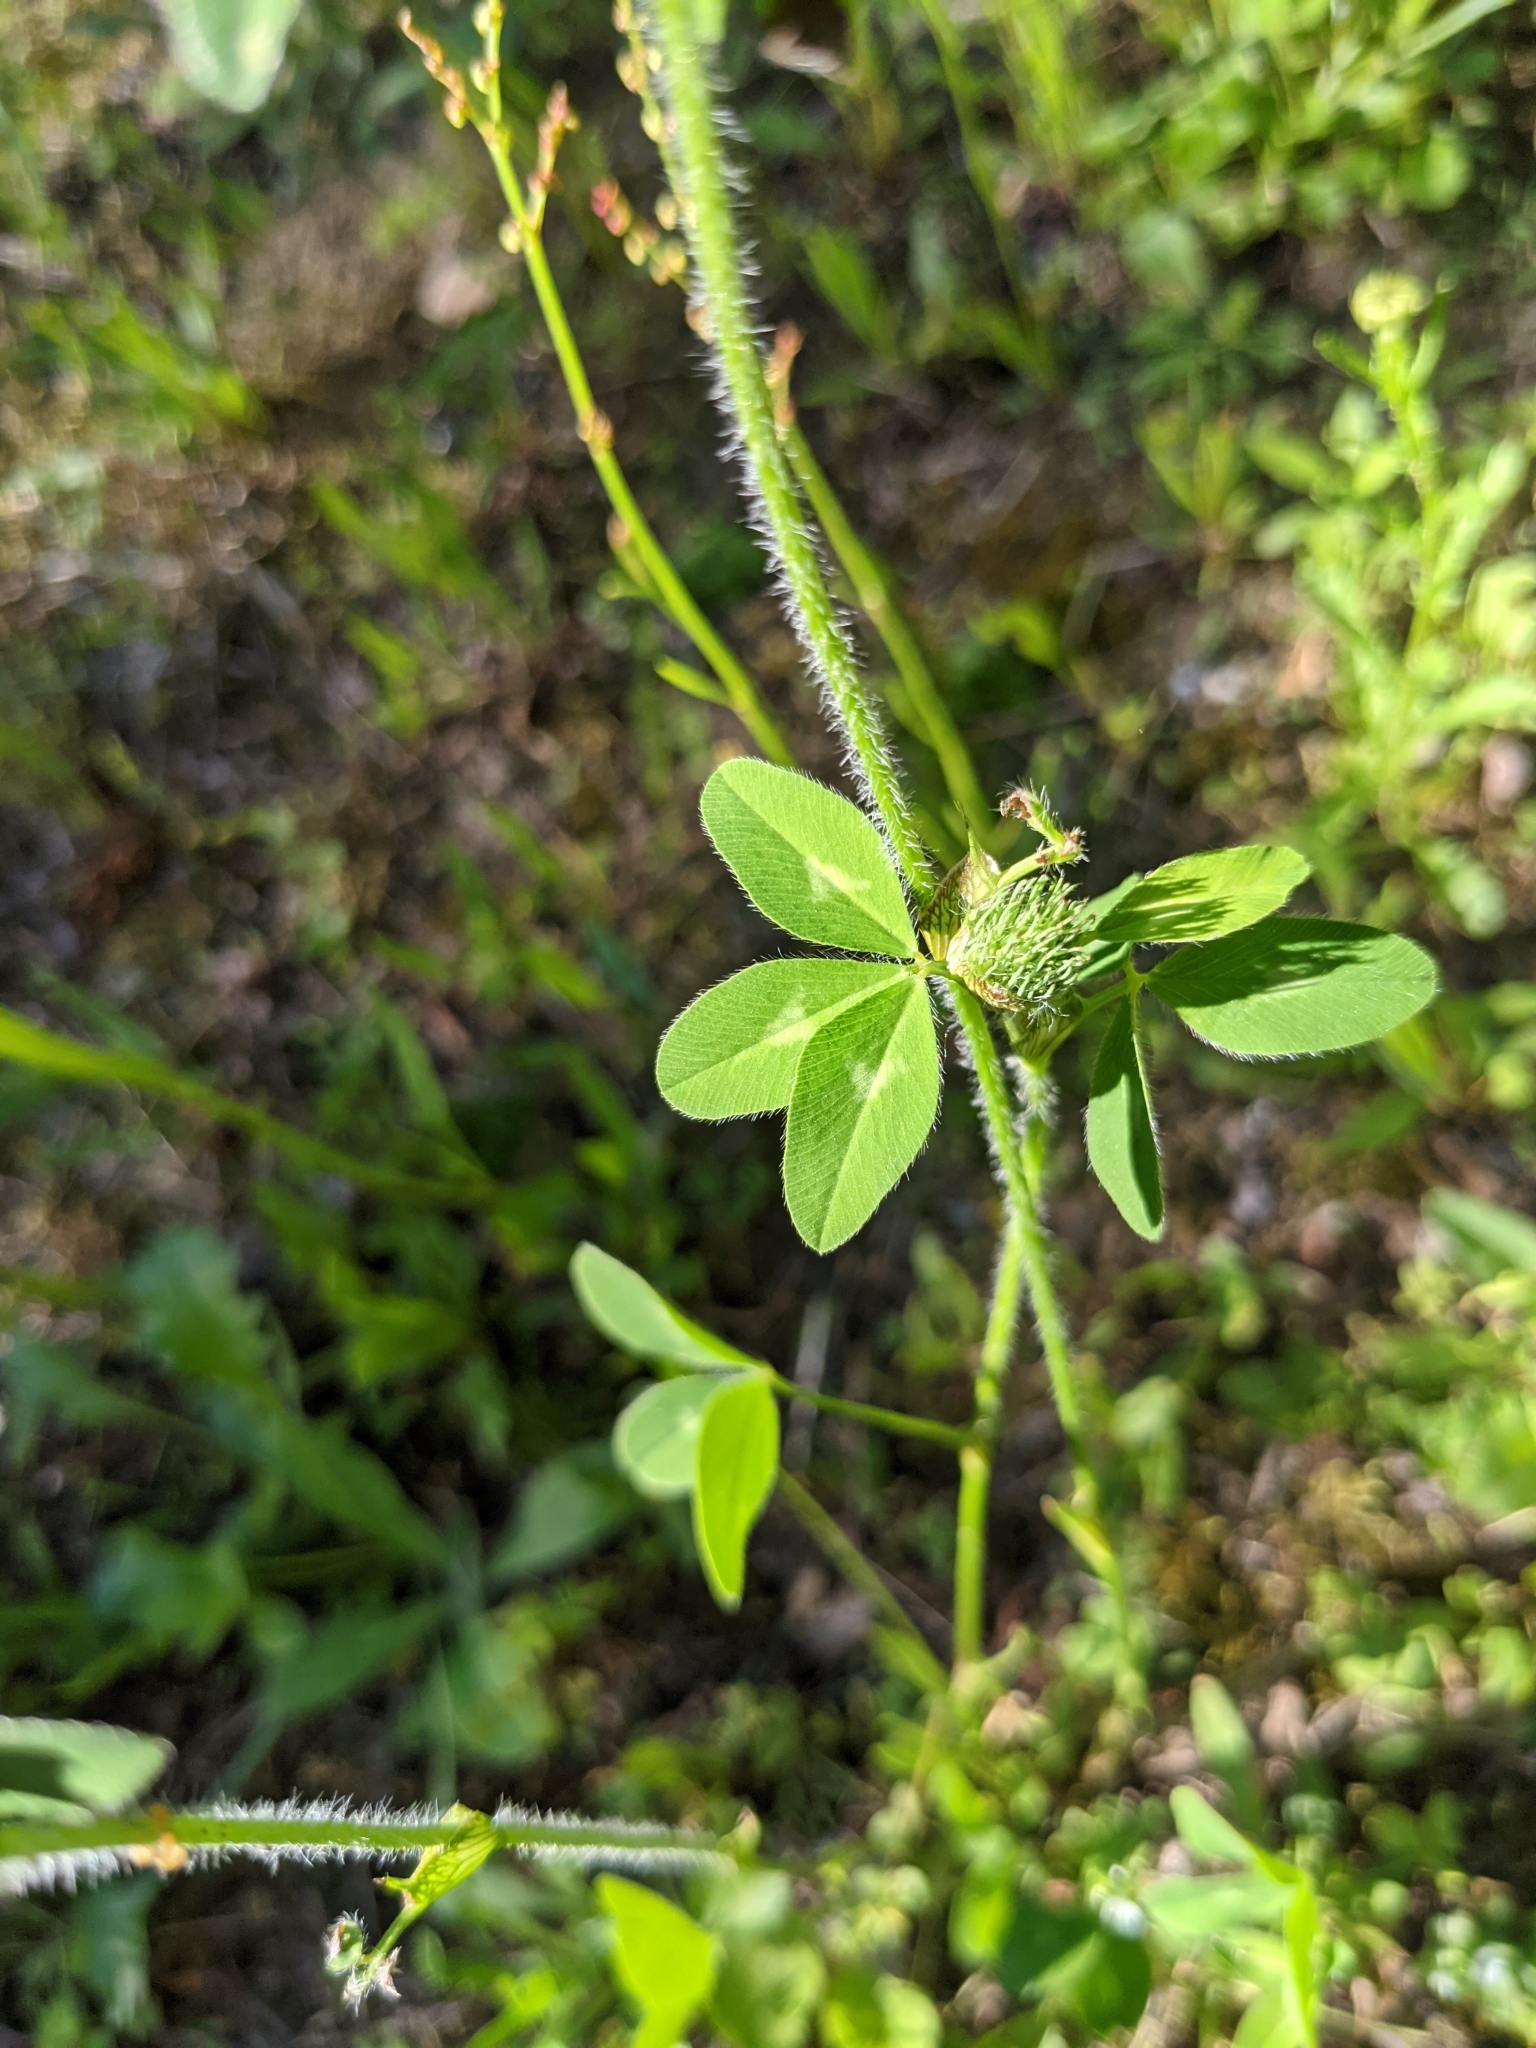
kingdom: Plantae
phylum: Tracheophyta
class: Magnoliopsida
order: Fabales
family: Fabaceae
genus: Trifolium
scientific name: Trifolium pratense
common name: Red clover
